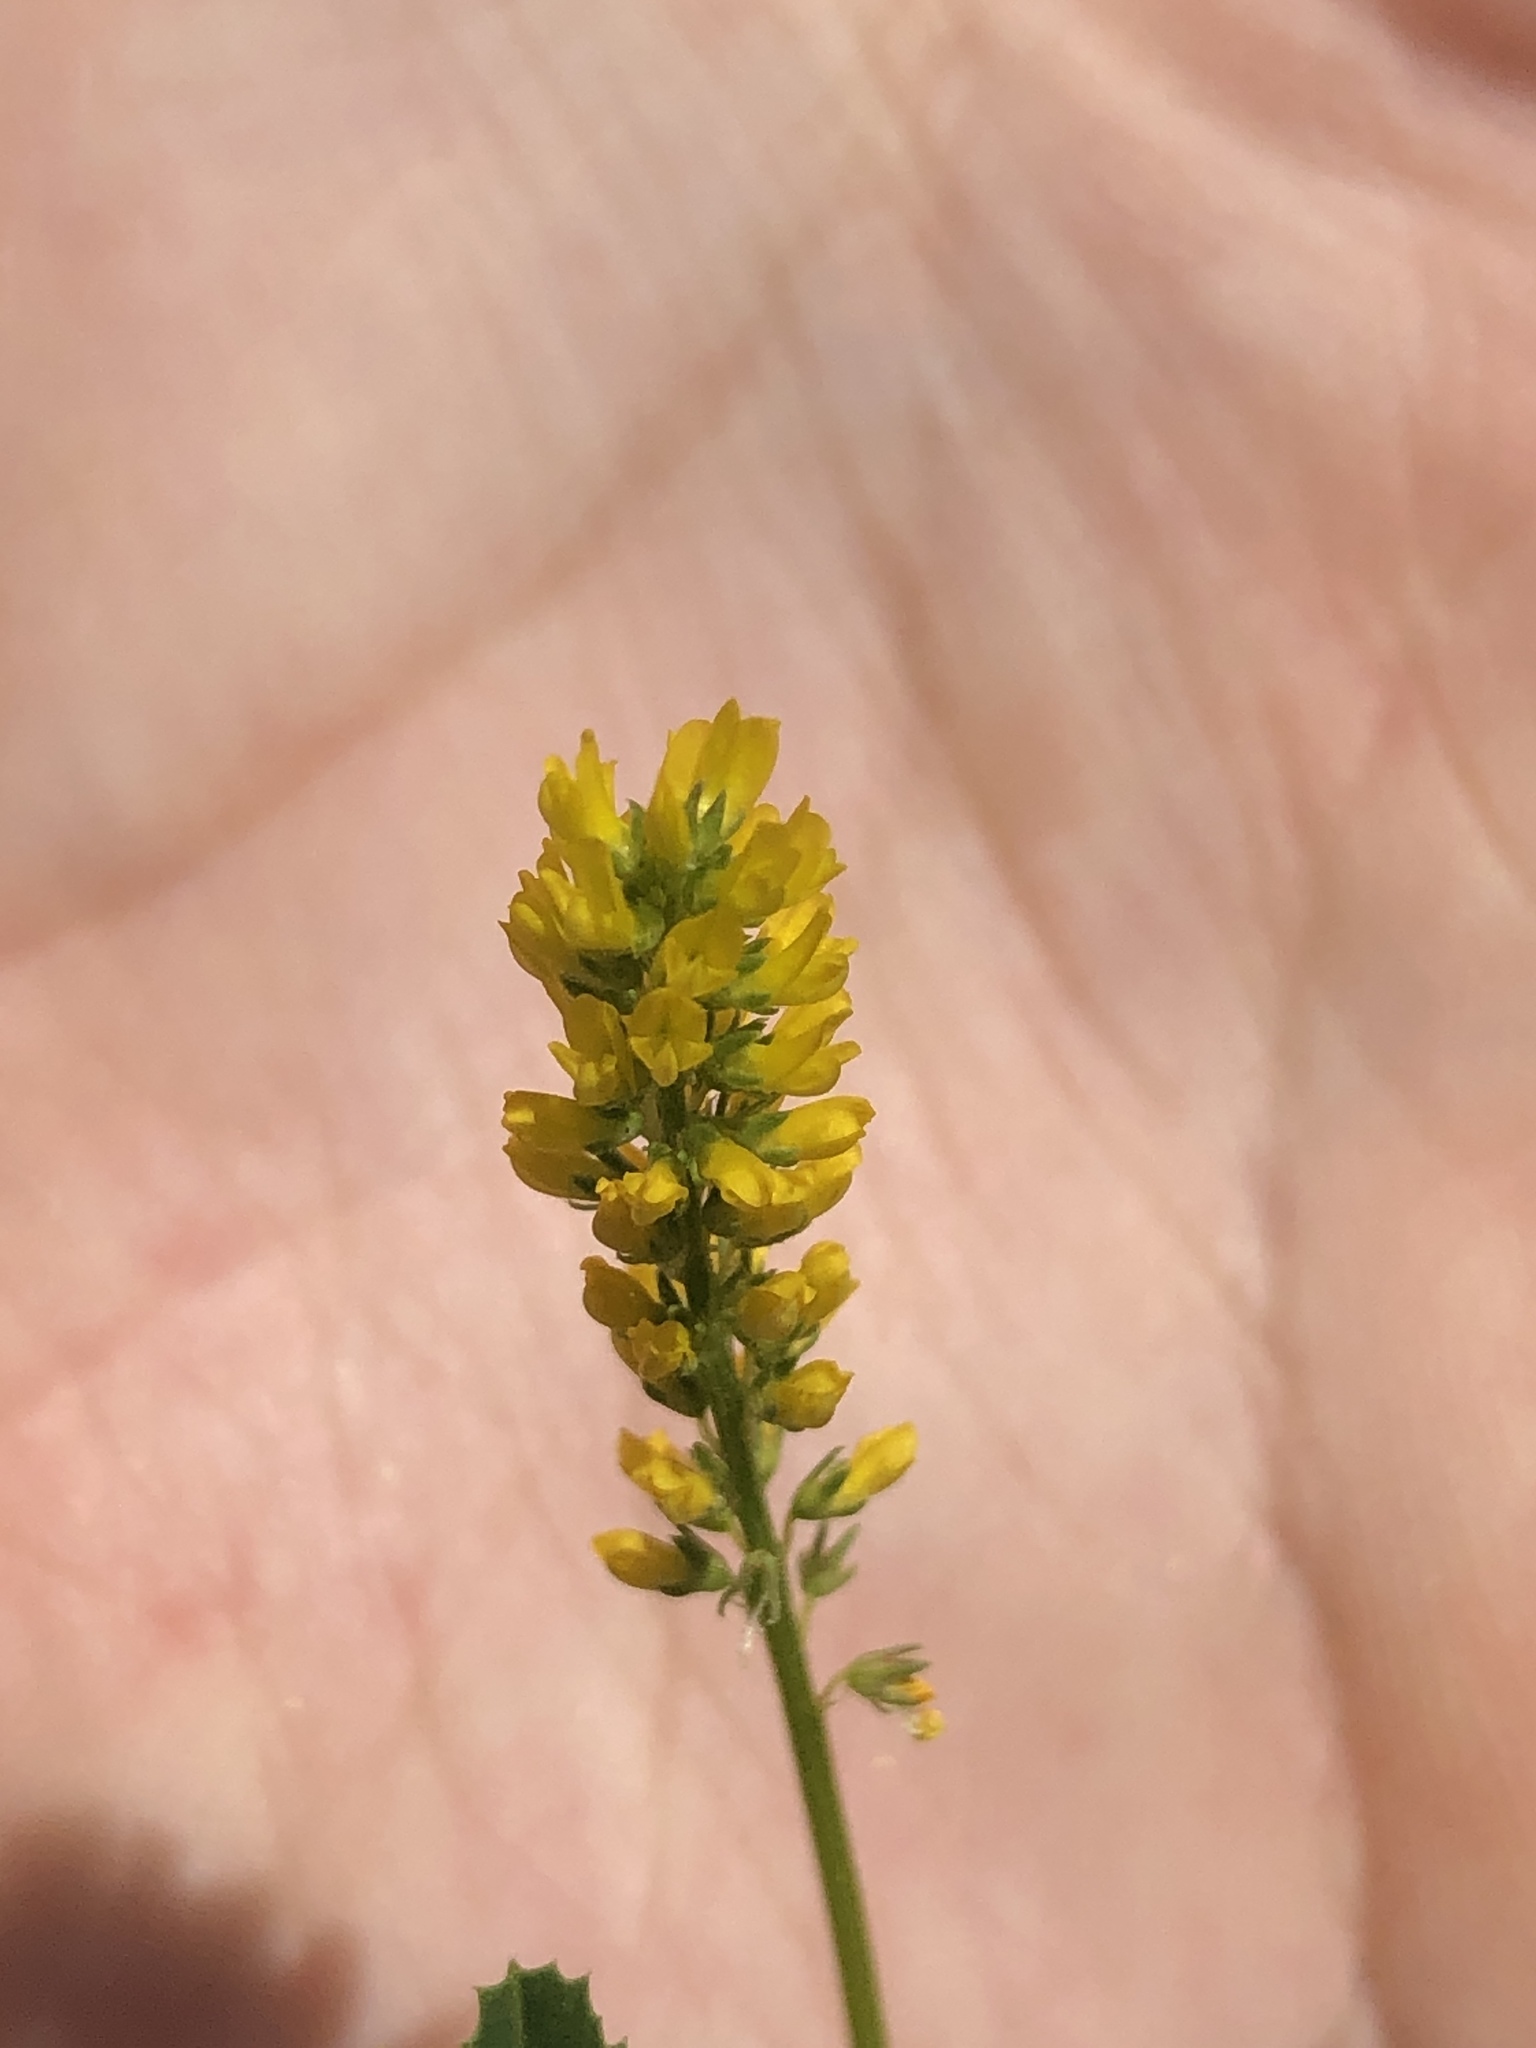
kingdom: Plantae
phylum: Tracheophyta
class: Magnoliopsida
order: Fabales
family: Fabaceae
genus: Melilotus
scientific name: Melilotus indicus
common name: Small melilot
